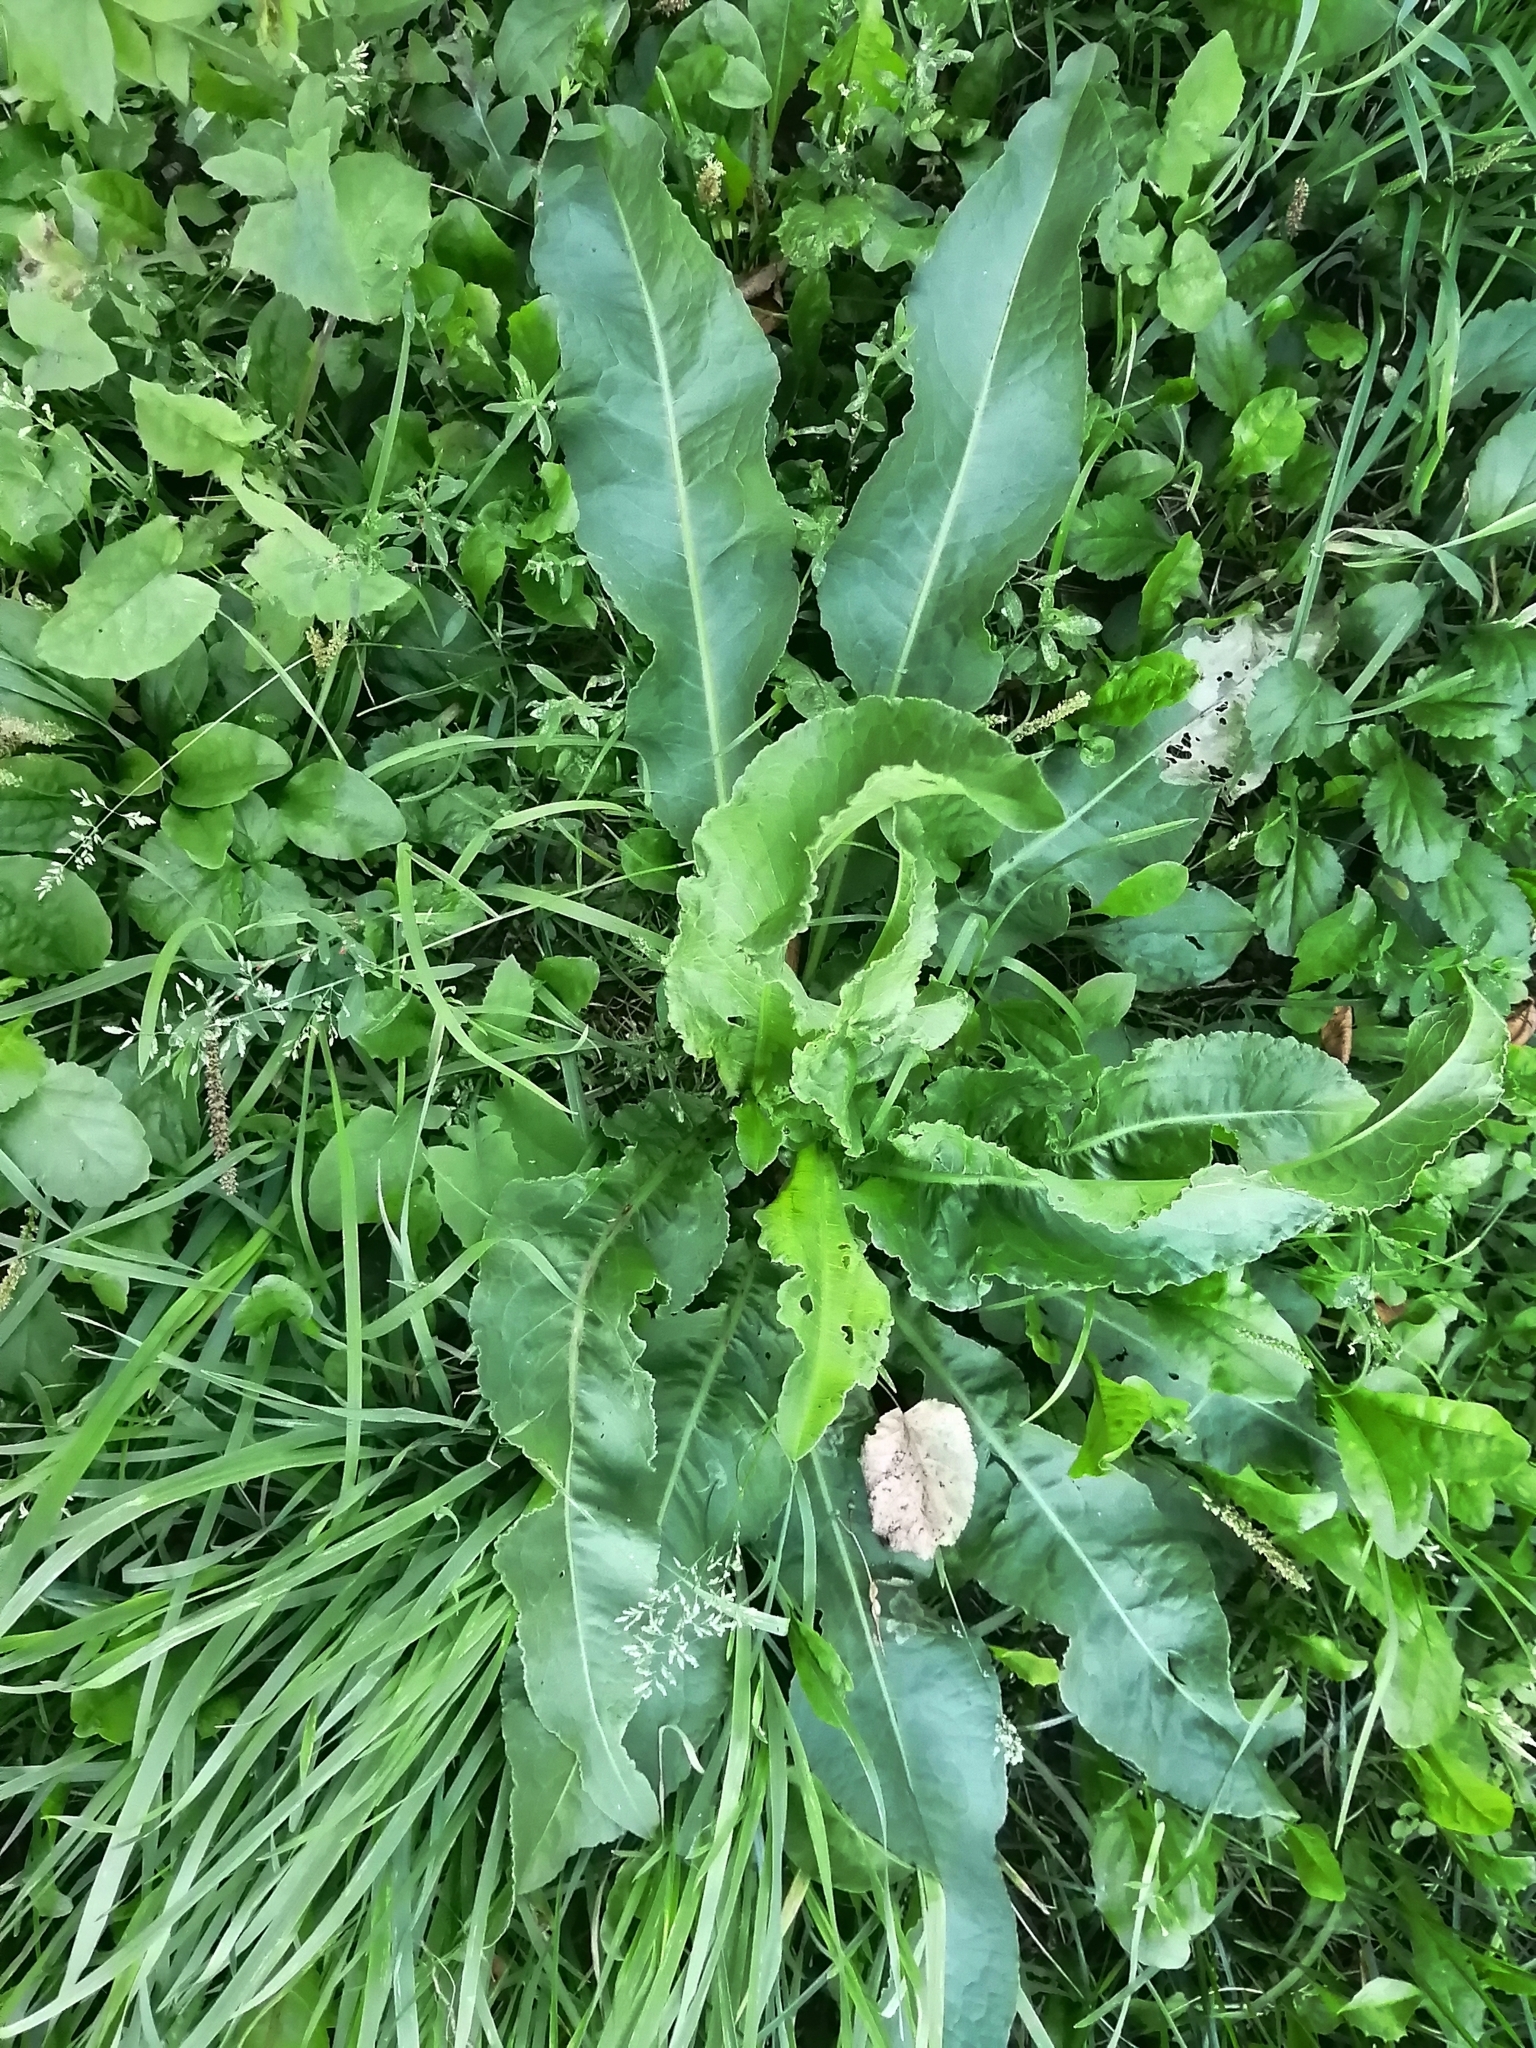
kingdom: Plantae
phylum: Tracheophyta
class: Magnoliopsida
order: Brassicales
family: Brassicaceae
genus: Armoracia
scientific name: Armoracia rusticana
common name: Horseradish
